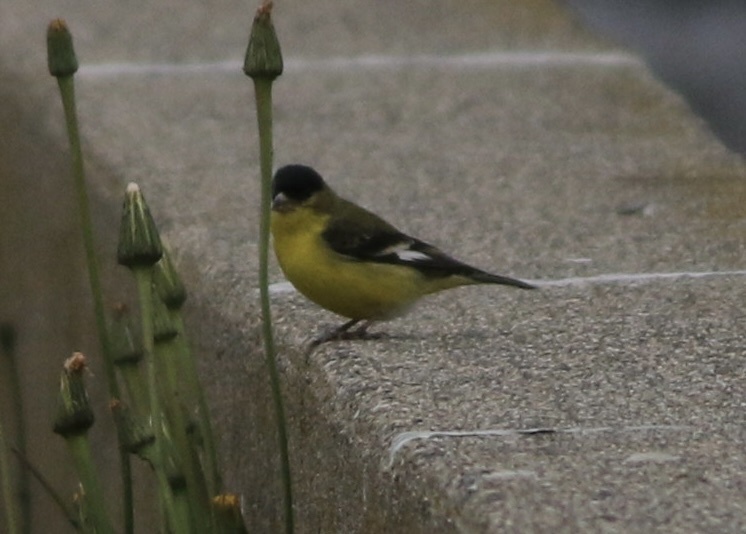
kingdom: Animalia
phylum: Chordata
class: Aves
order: Passeriformes
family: Fringillidae
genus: Spinus
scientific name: Spinus psaltria
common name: Lesser goldfinch
